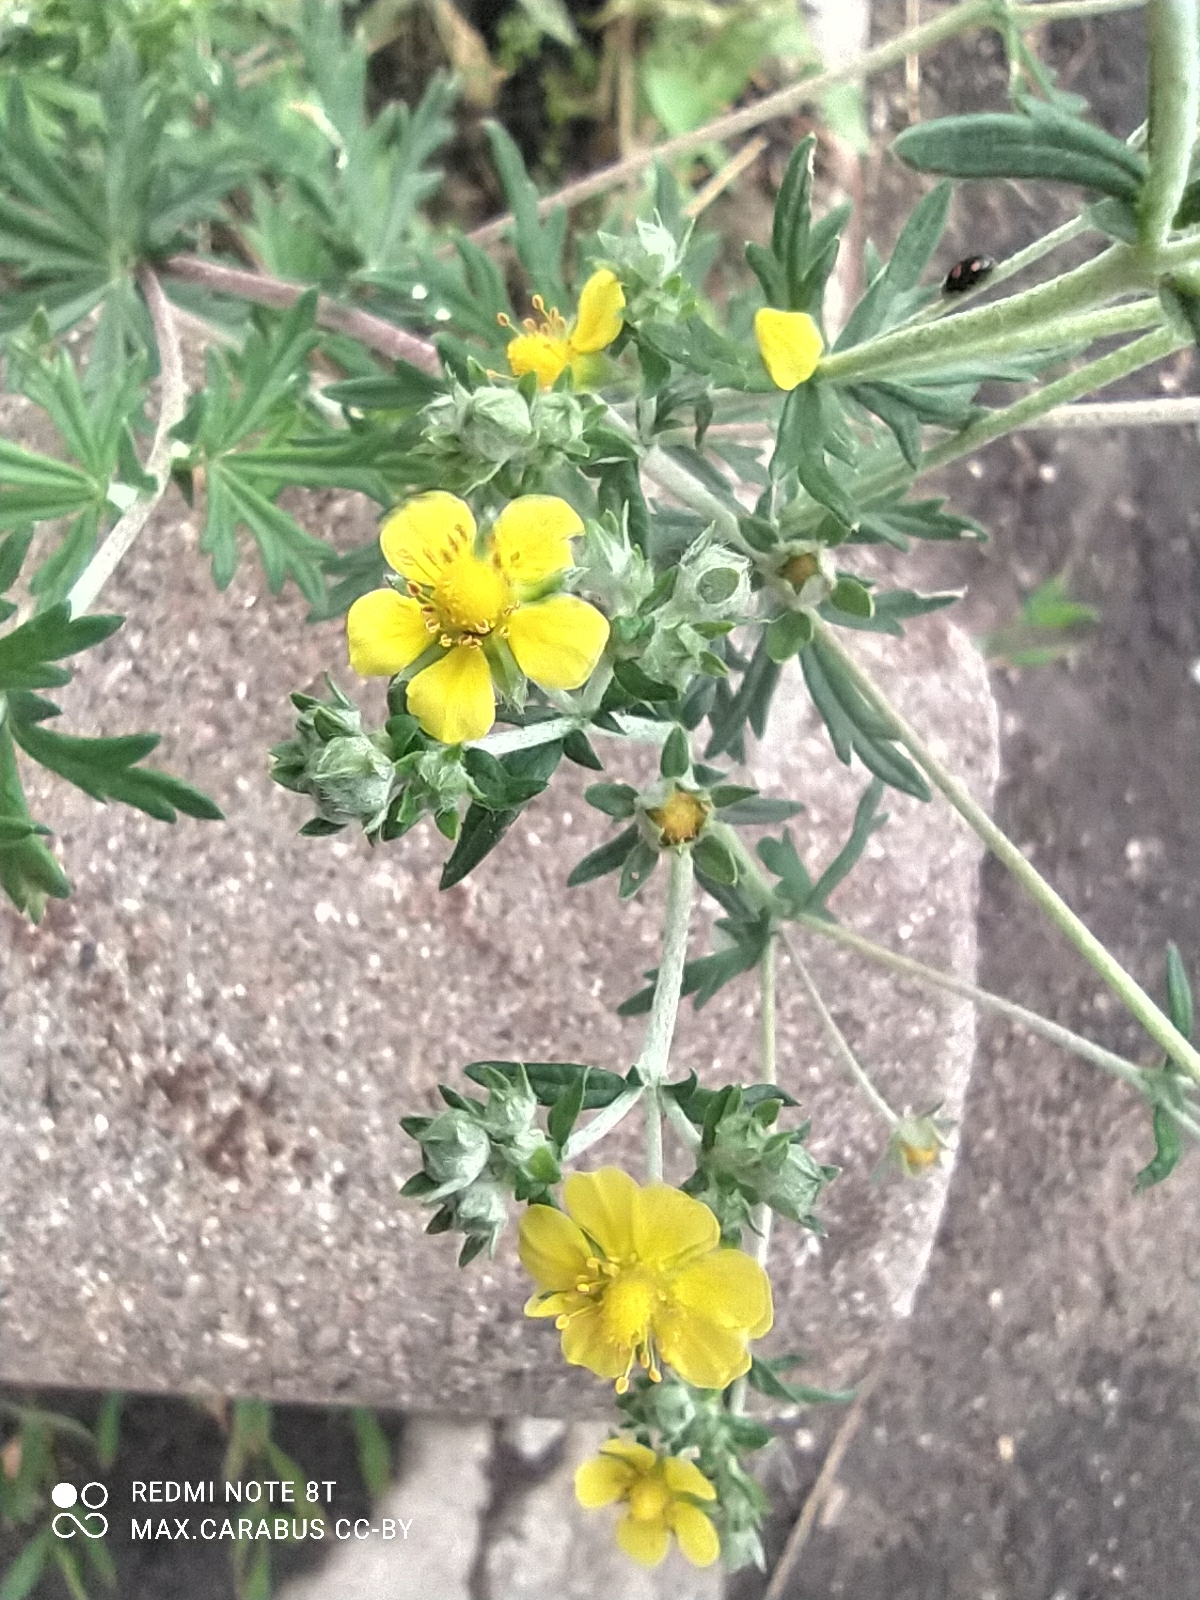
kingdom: Plantae
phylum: Tracheophyta
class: Magnoliopsida
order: Rosales
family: Rosaceae
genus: Potentilla
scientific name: Potentilla argentea
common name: Hoary cinquefoil
